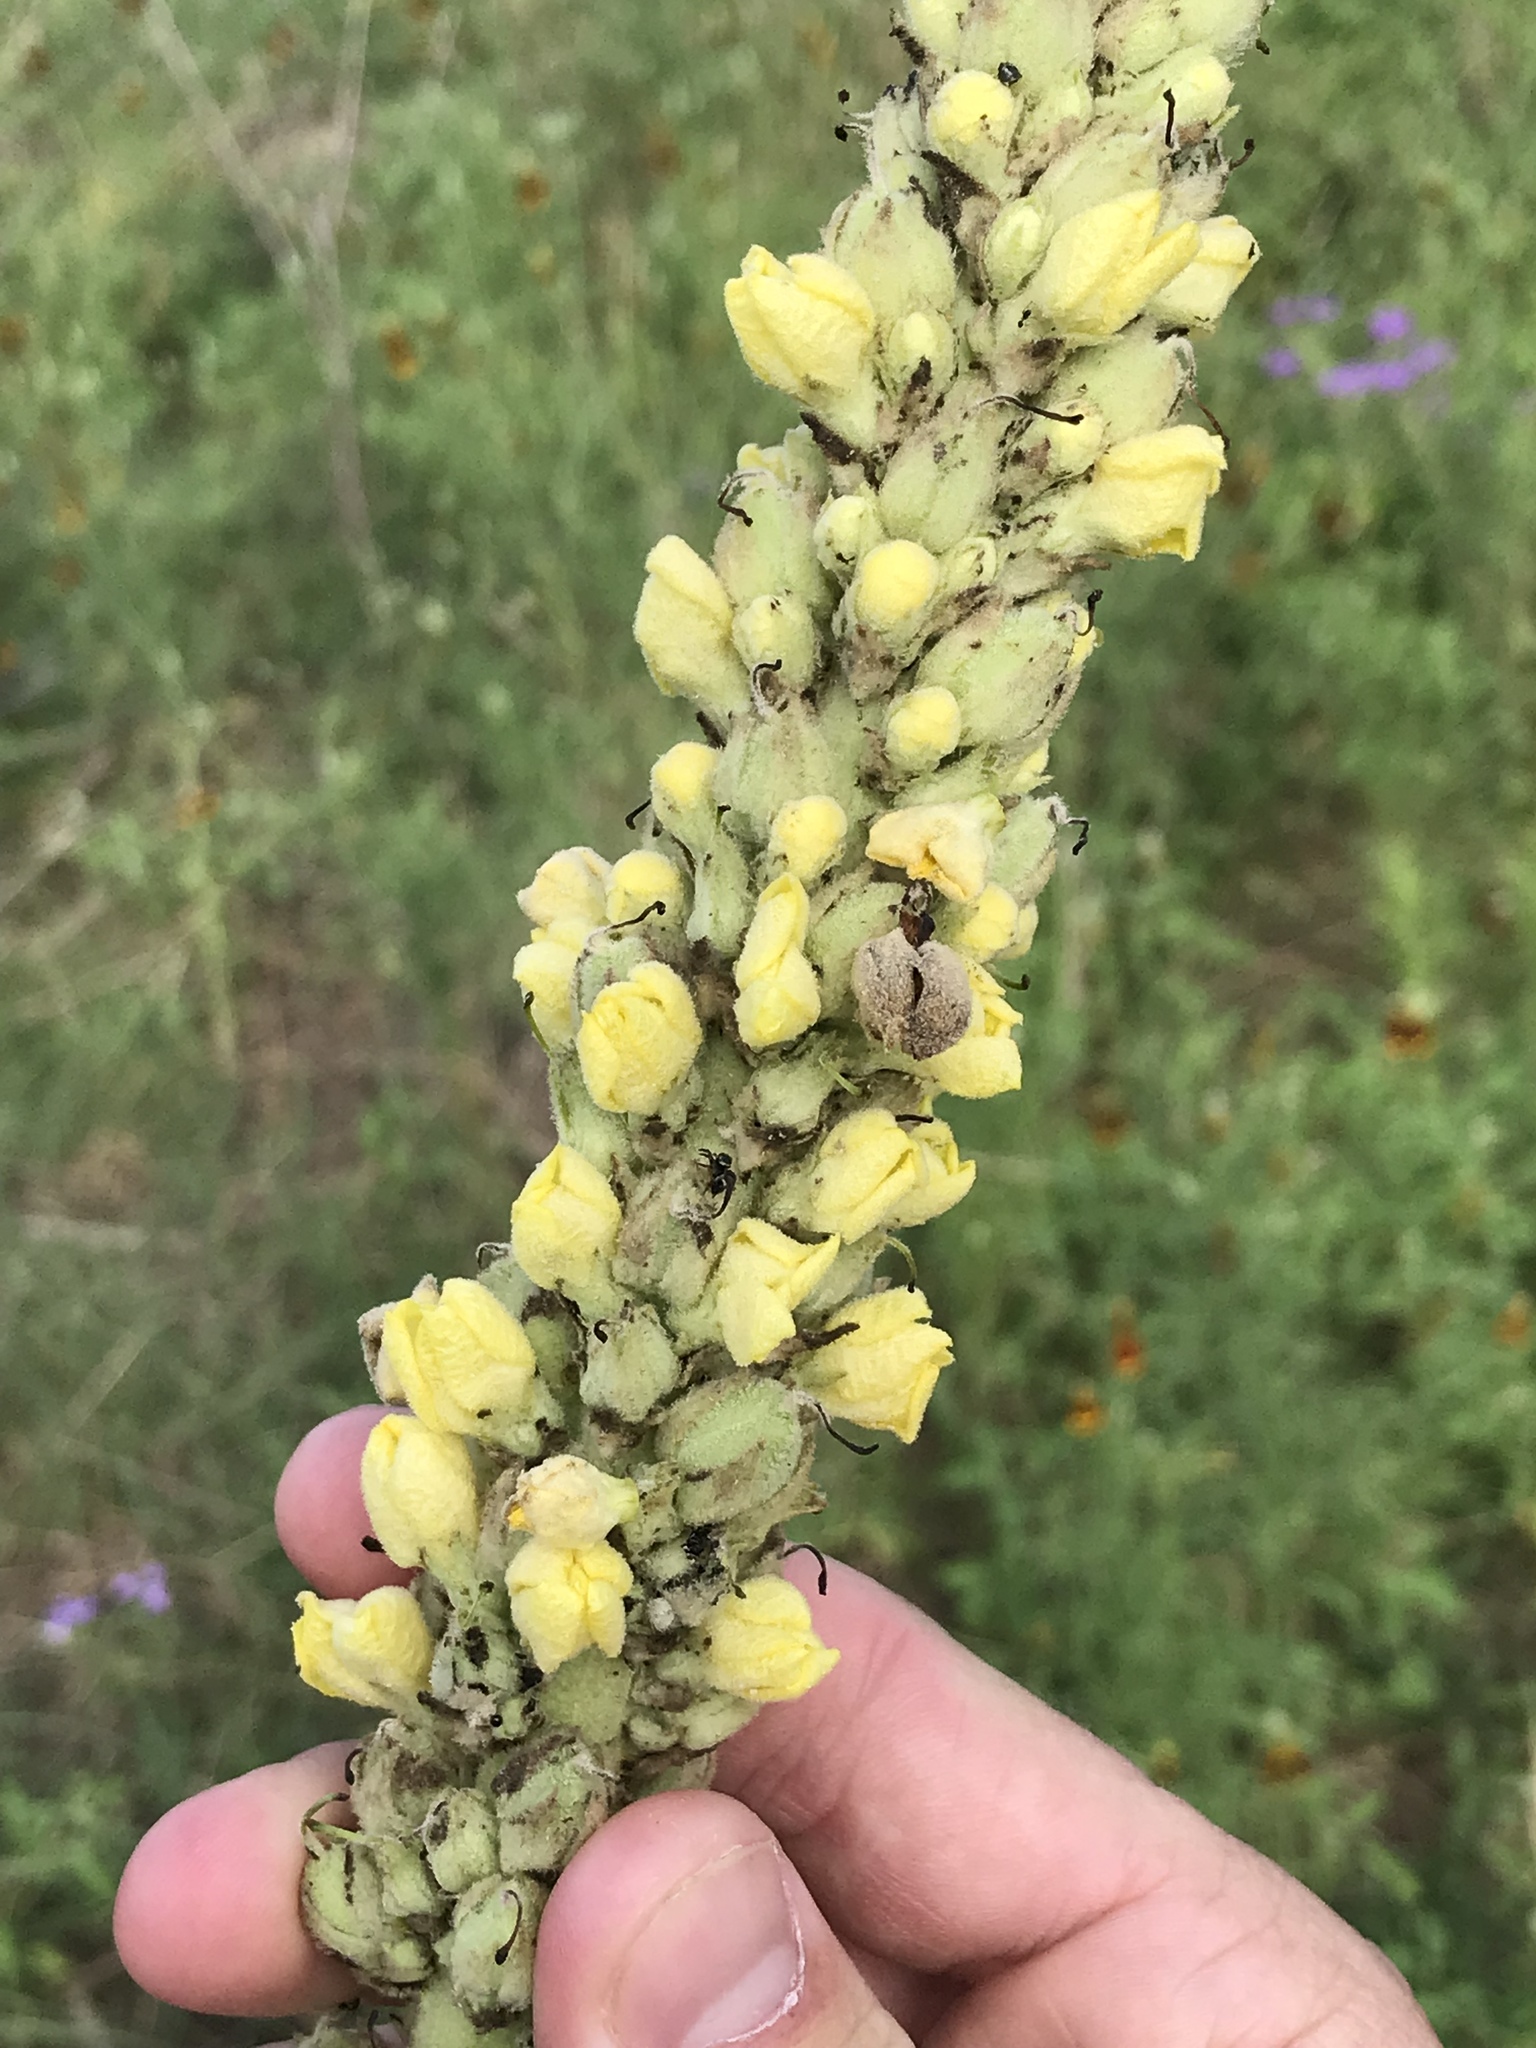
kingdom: Plantae
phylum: Tracheophyta
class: Magnoliopsida
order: Lamiales
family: Scrophulariaceae
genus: Verbascum
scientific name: Verbascum thapsus
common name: Common mullein
